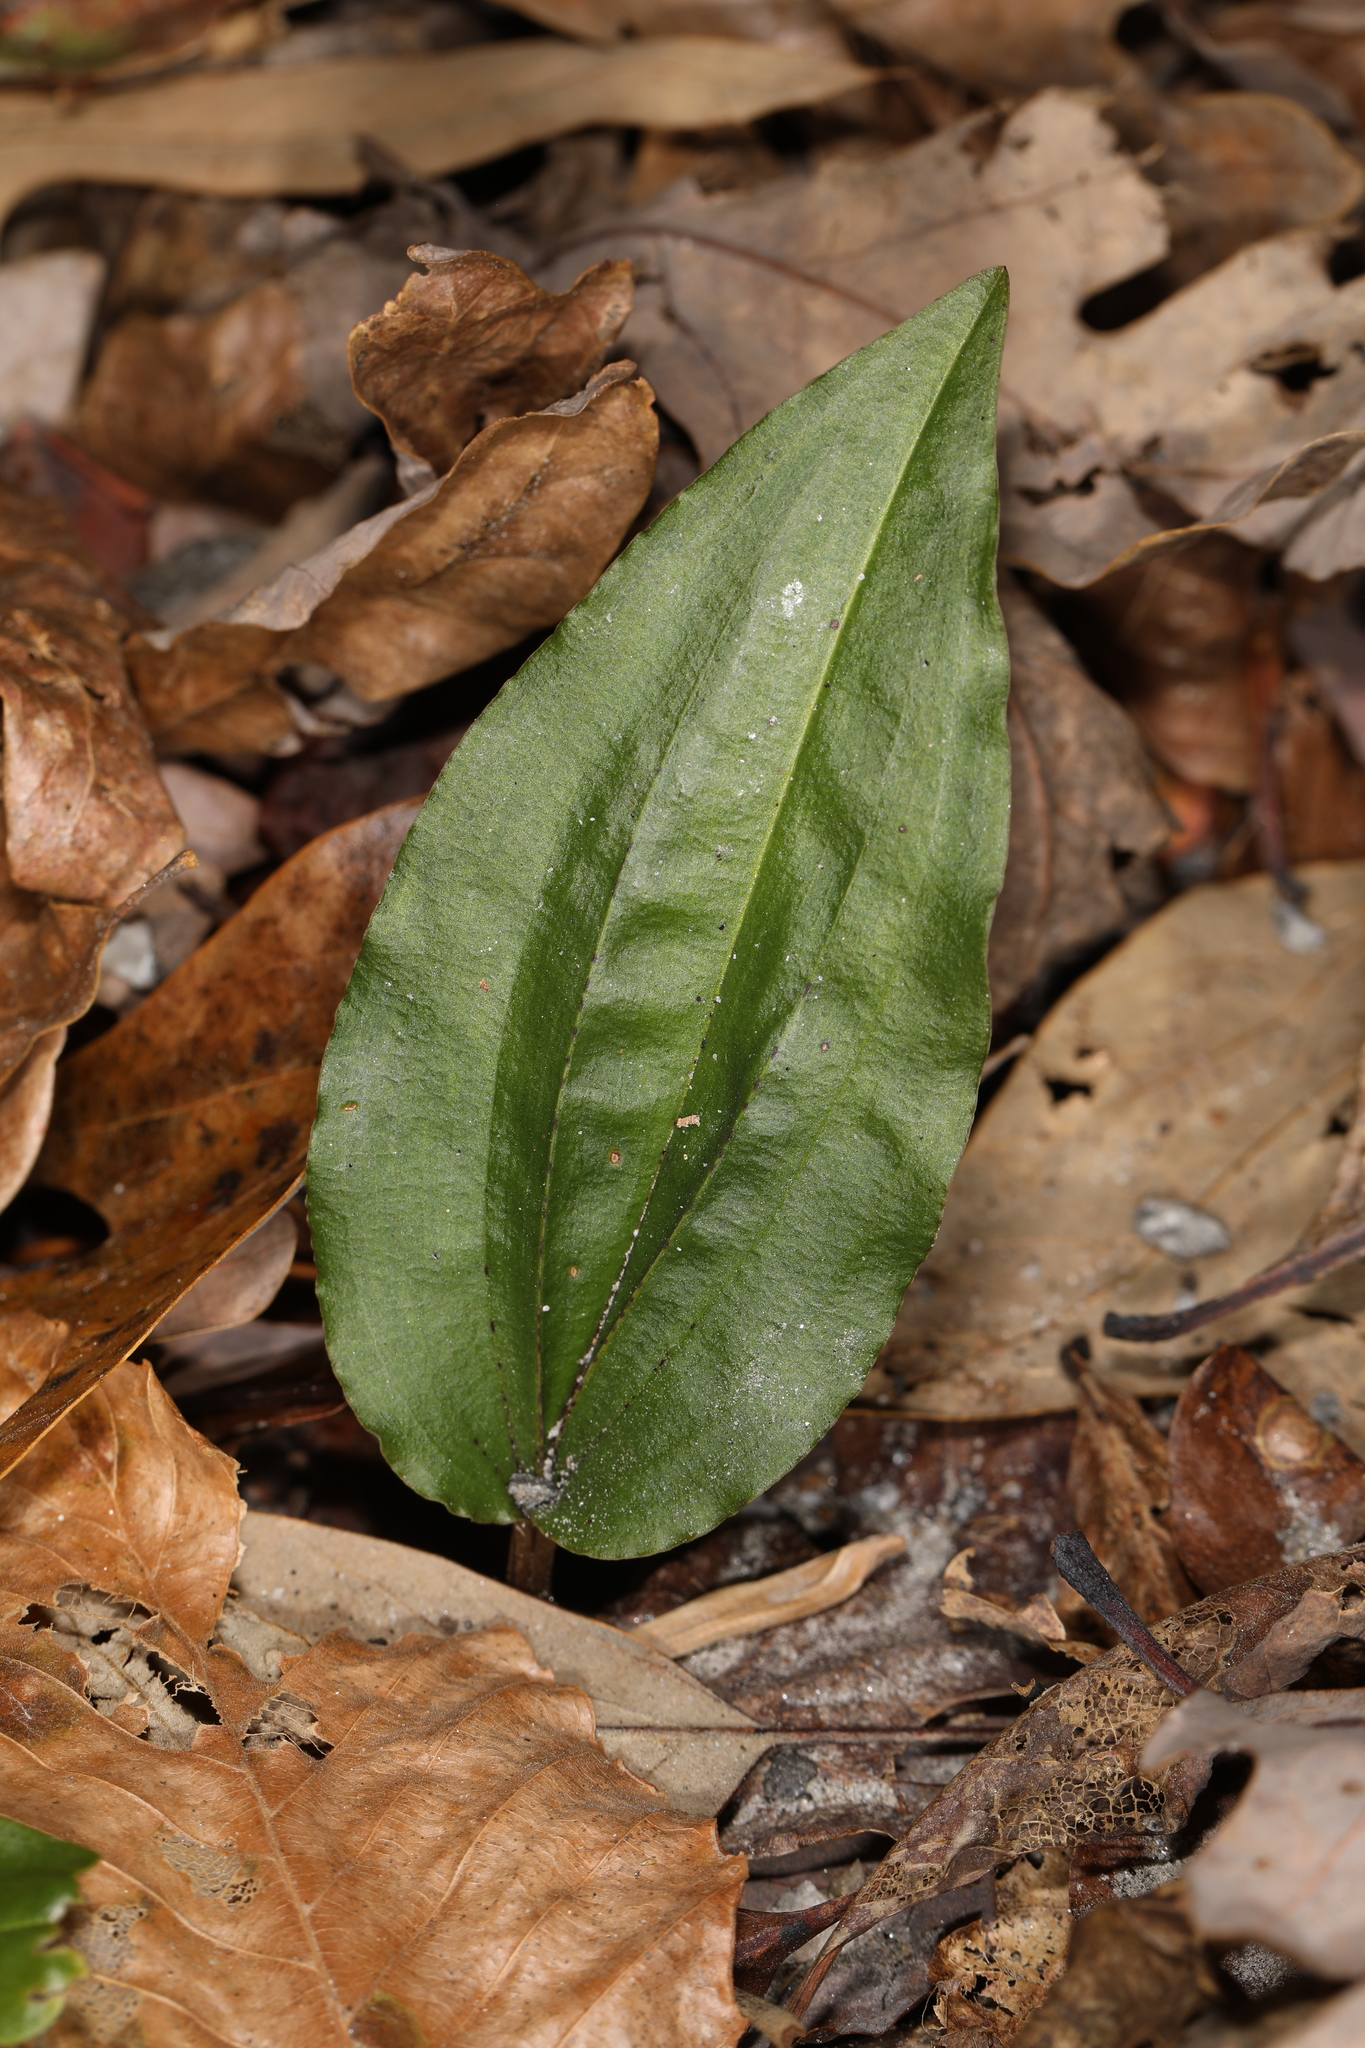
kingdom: Plantae
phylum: Tracheophyta
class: Liliopsida
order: Asparagales
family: Orchidaceae
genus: Tipularia
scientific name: Tipularia discolor
